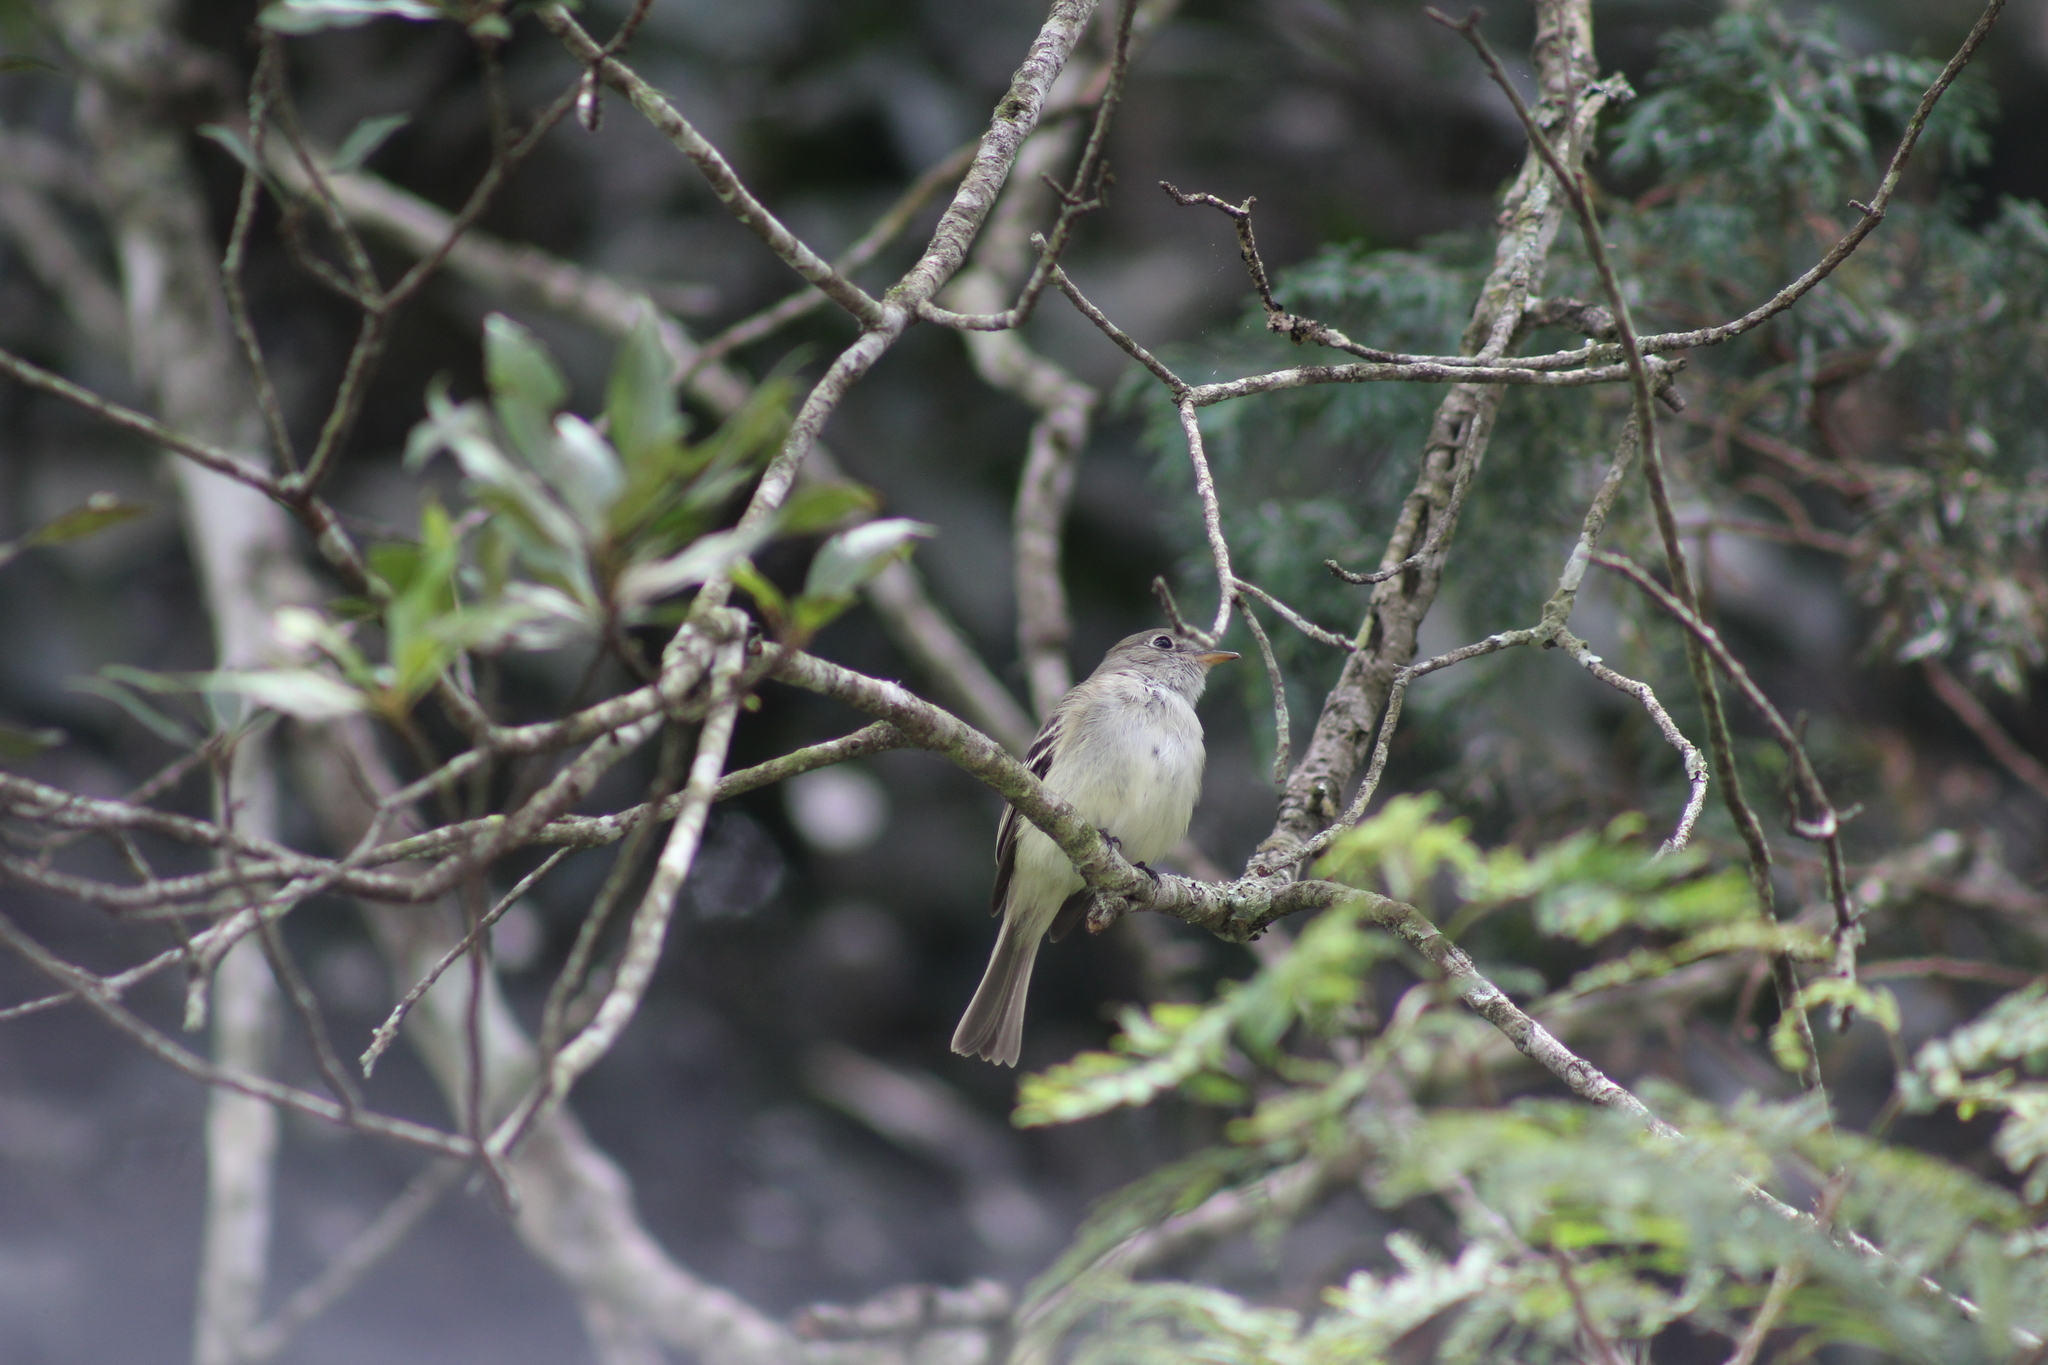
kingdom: Animalia
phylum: Chordata
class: Aves
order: Passeriformes
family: Tyrannidae
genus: Empidonax
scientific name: Empidonax minimus
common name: Least flycatcher
